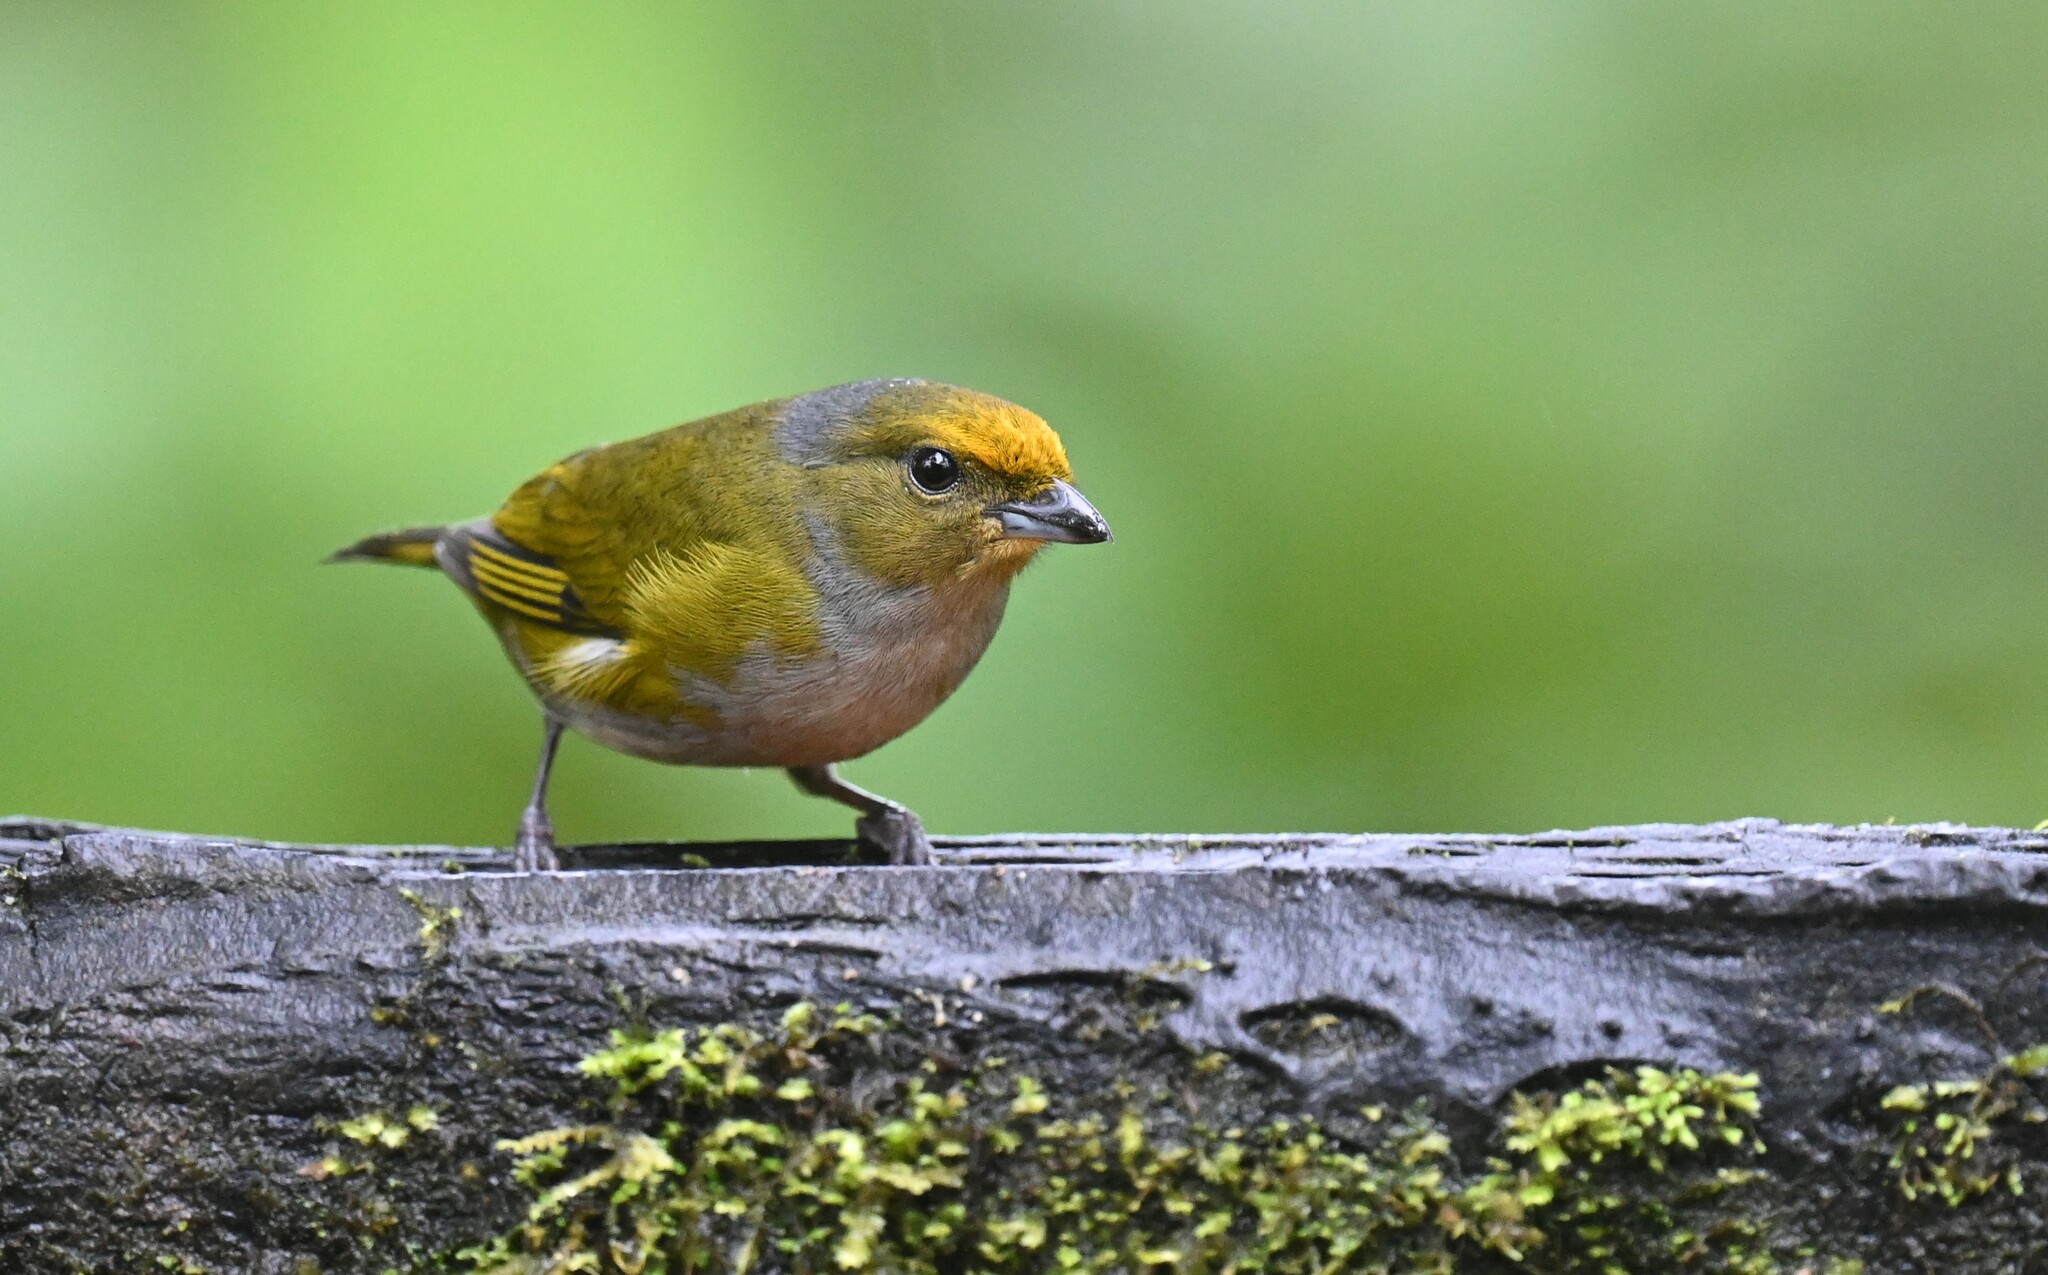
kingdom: Animalia
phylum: Chordata
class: Aves
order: Passeriformes
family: Fringillidae
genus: Euphonia
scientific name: Euphonia xanthogaster
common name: Orange-bellied euphonia
